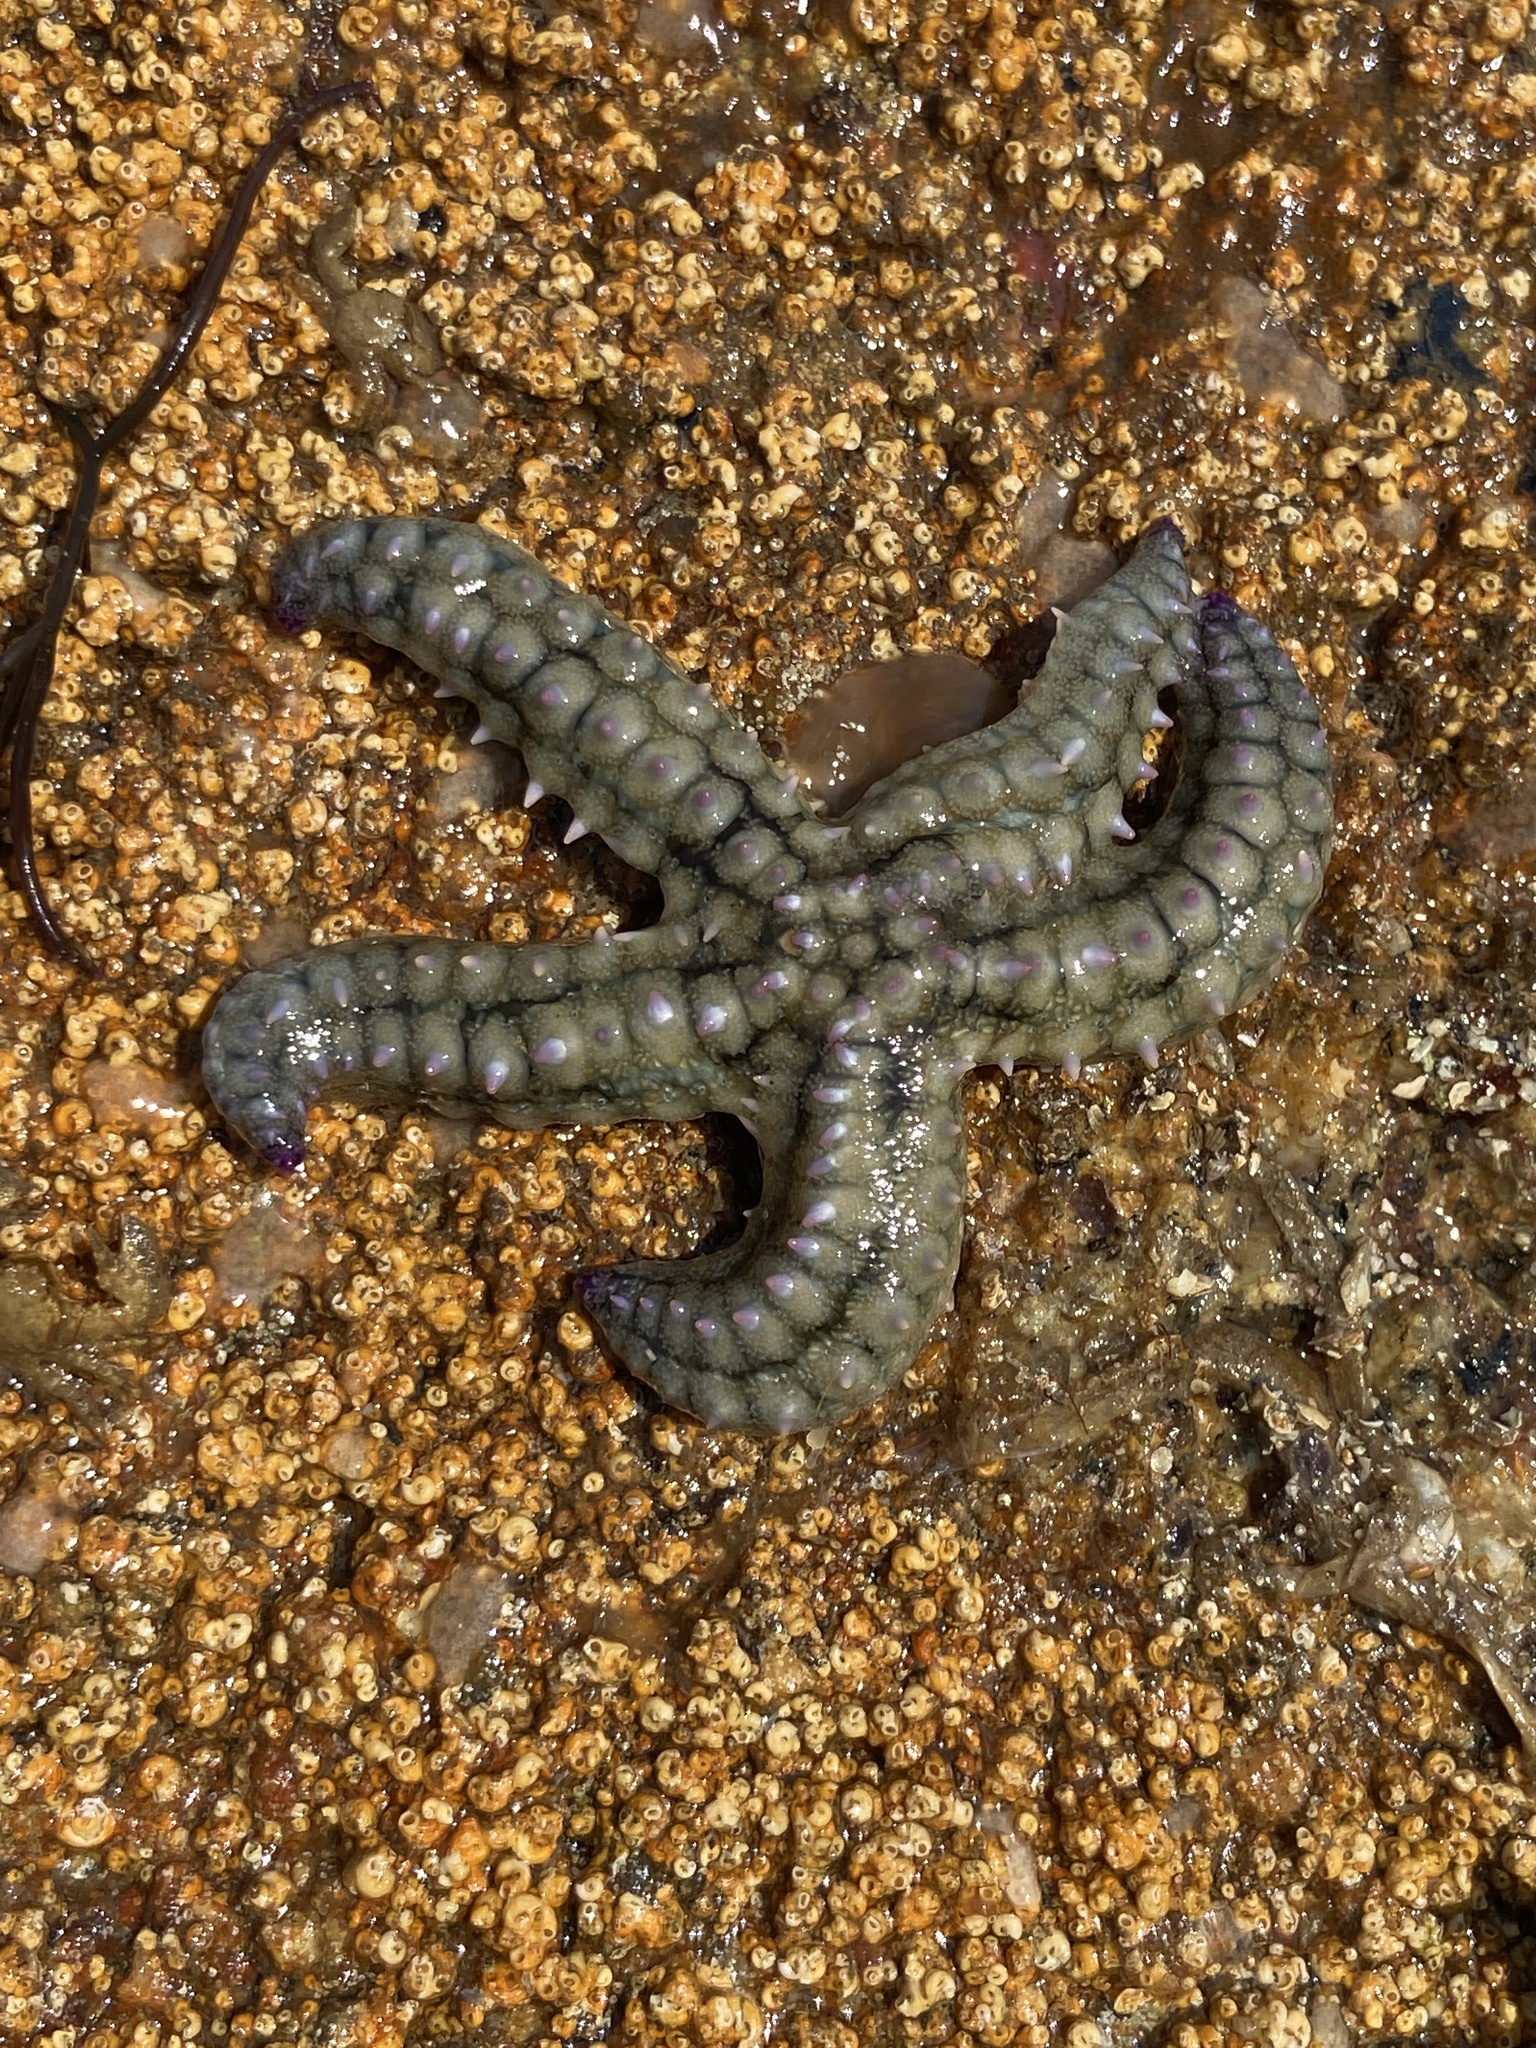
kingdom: Animalia
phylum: Echinodermata
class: Asteroidea
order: Forcipulatida
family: Asteriidae
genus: Marthasterias
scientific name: Marthasterias glacialis
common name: Spiny starfish
